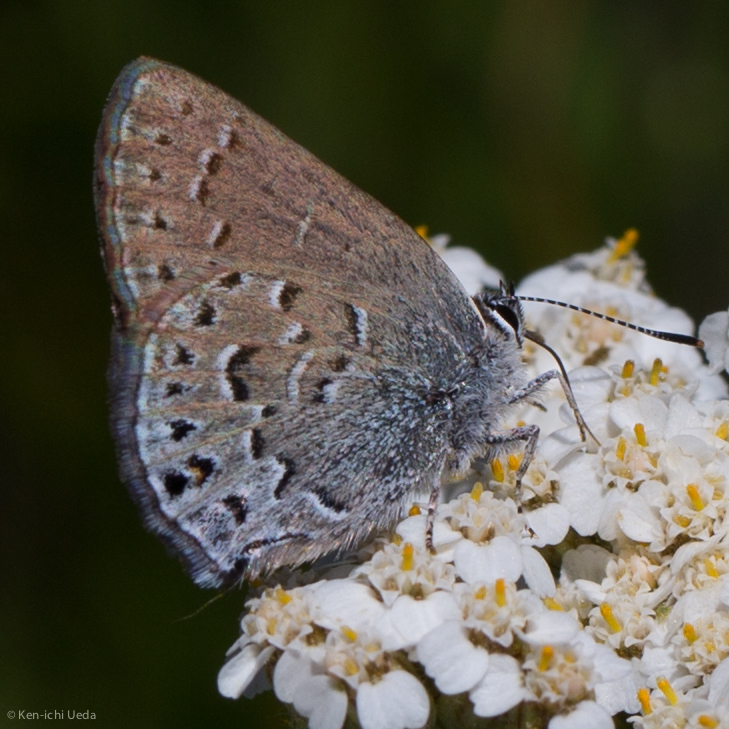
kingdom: Animalia
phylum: Arthropoda
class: Insecta
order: Lepidoptera
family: Lycaenidae
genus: Satyrium
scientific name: Satyrium behrii
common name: Behr's hairstreak
